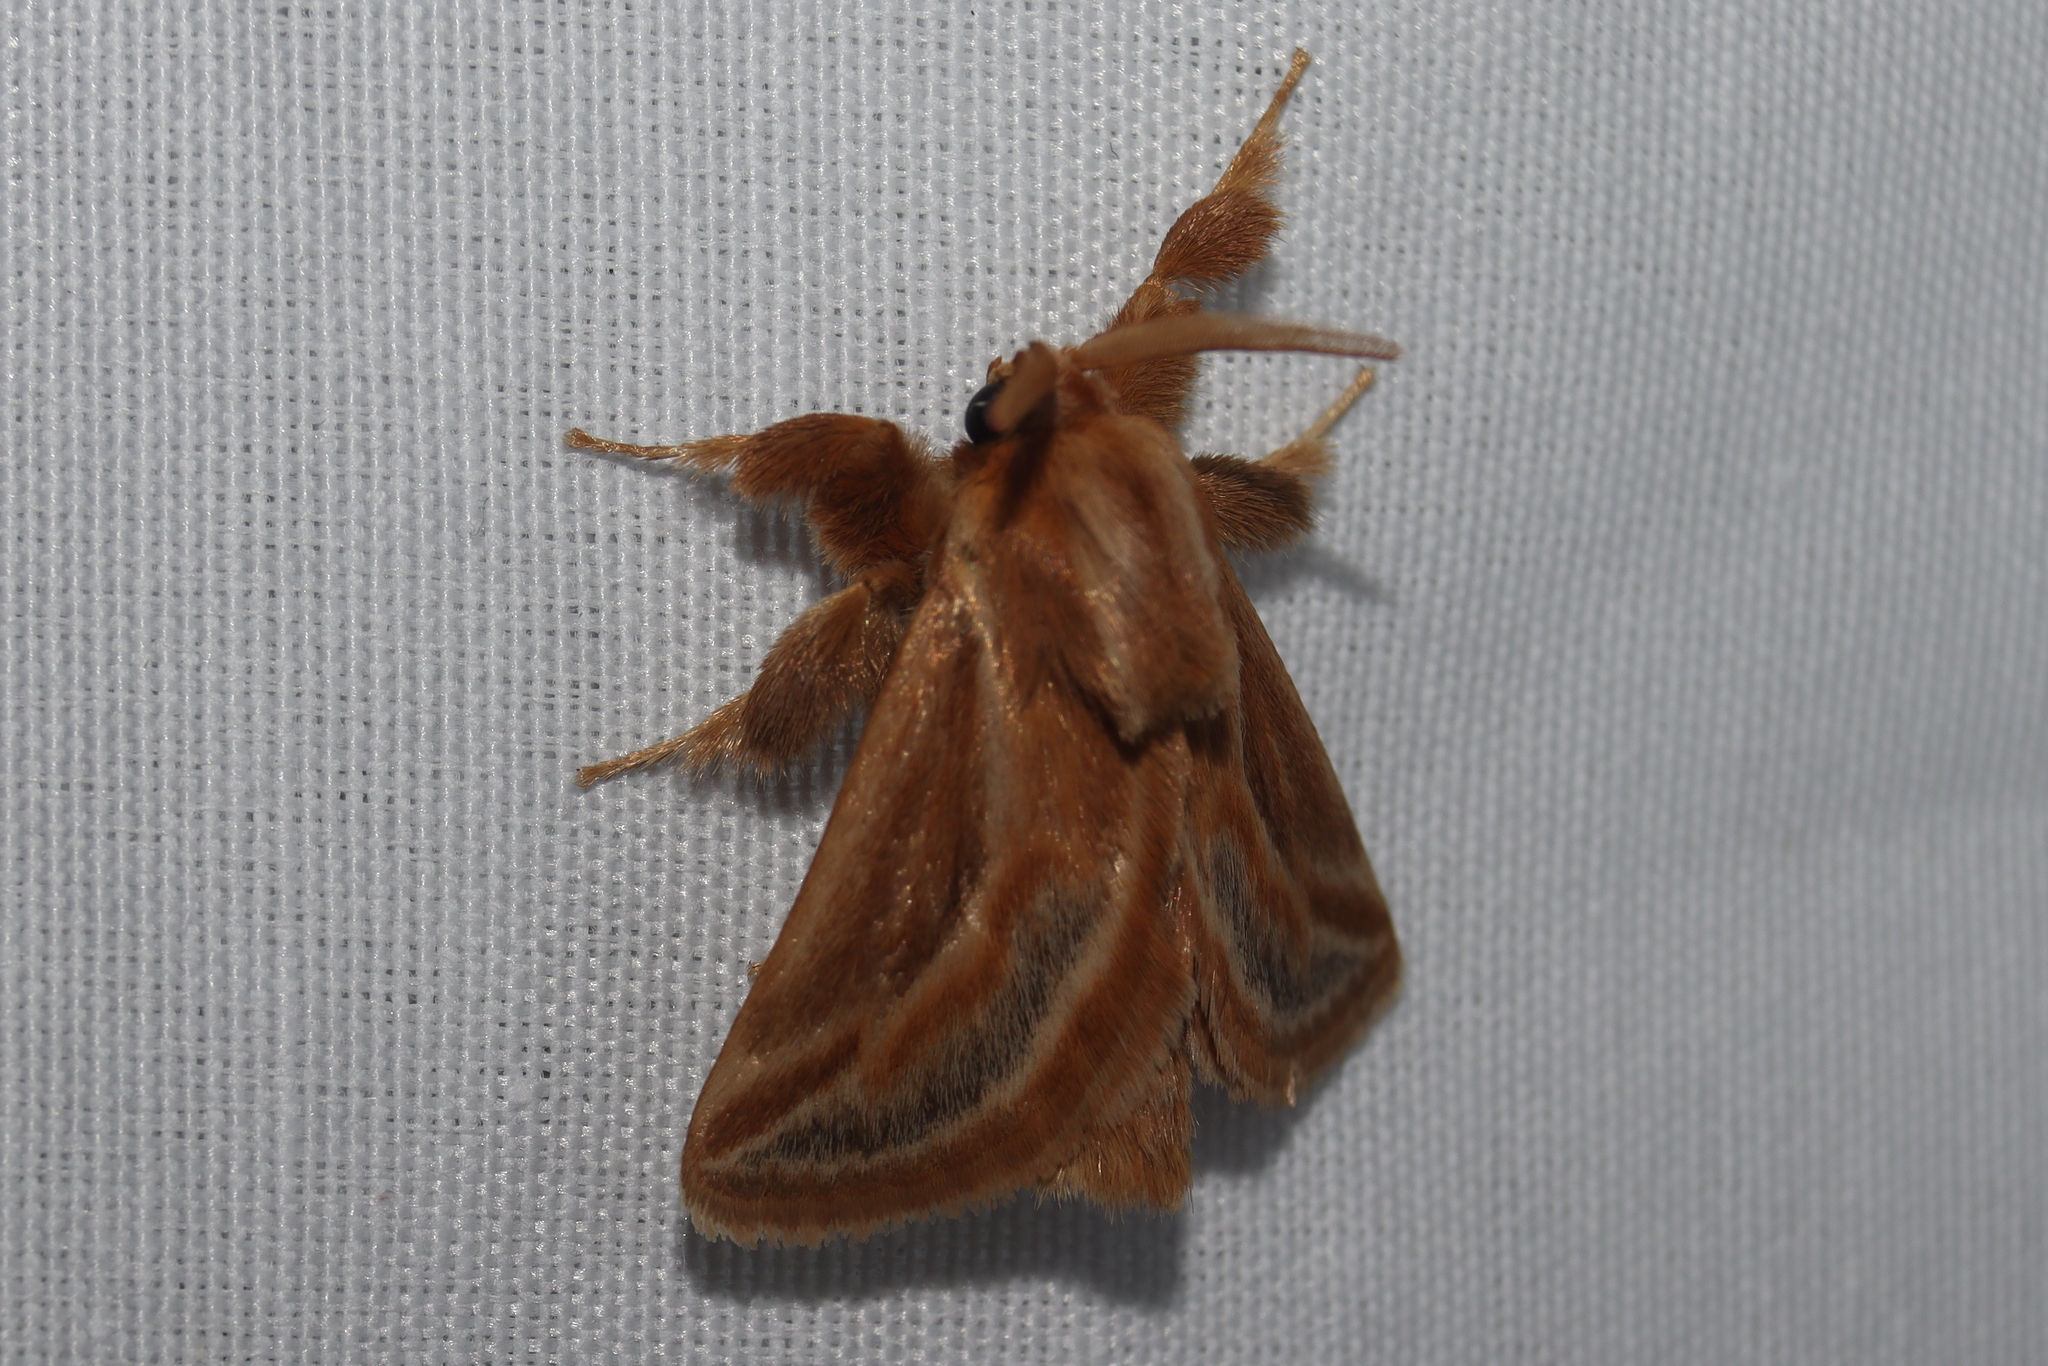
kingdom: Animalia
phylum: Arthropoda
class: Insecta
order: Lepidoptera
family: Limacodidae
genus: Perola
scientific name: Perola chica
